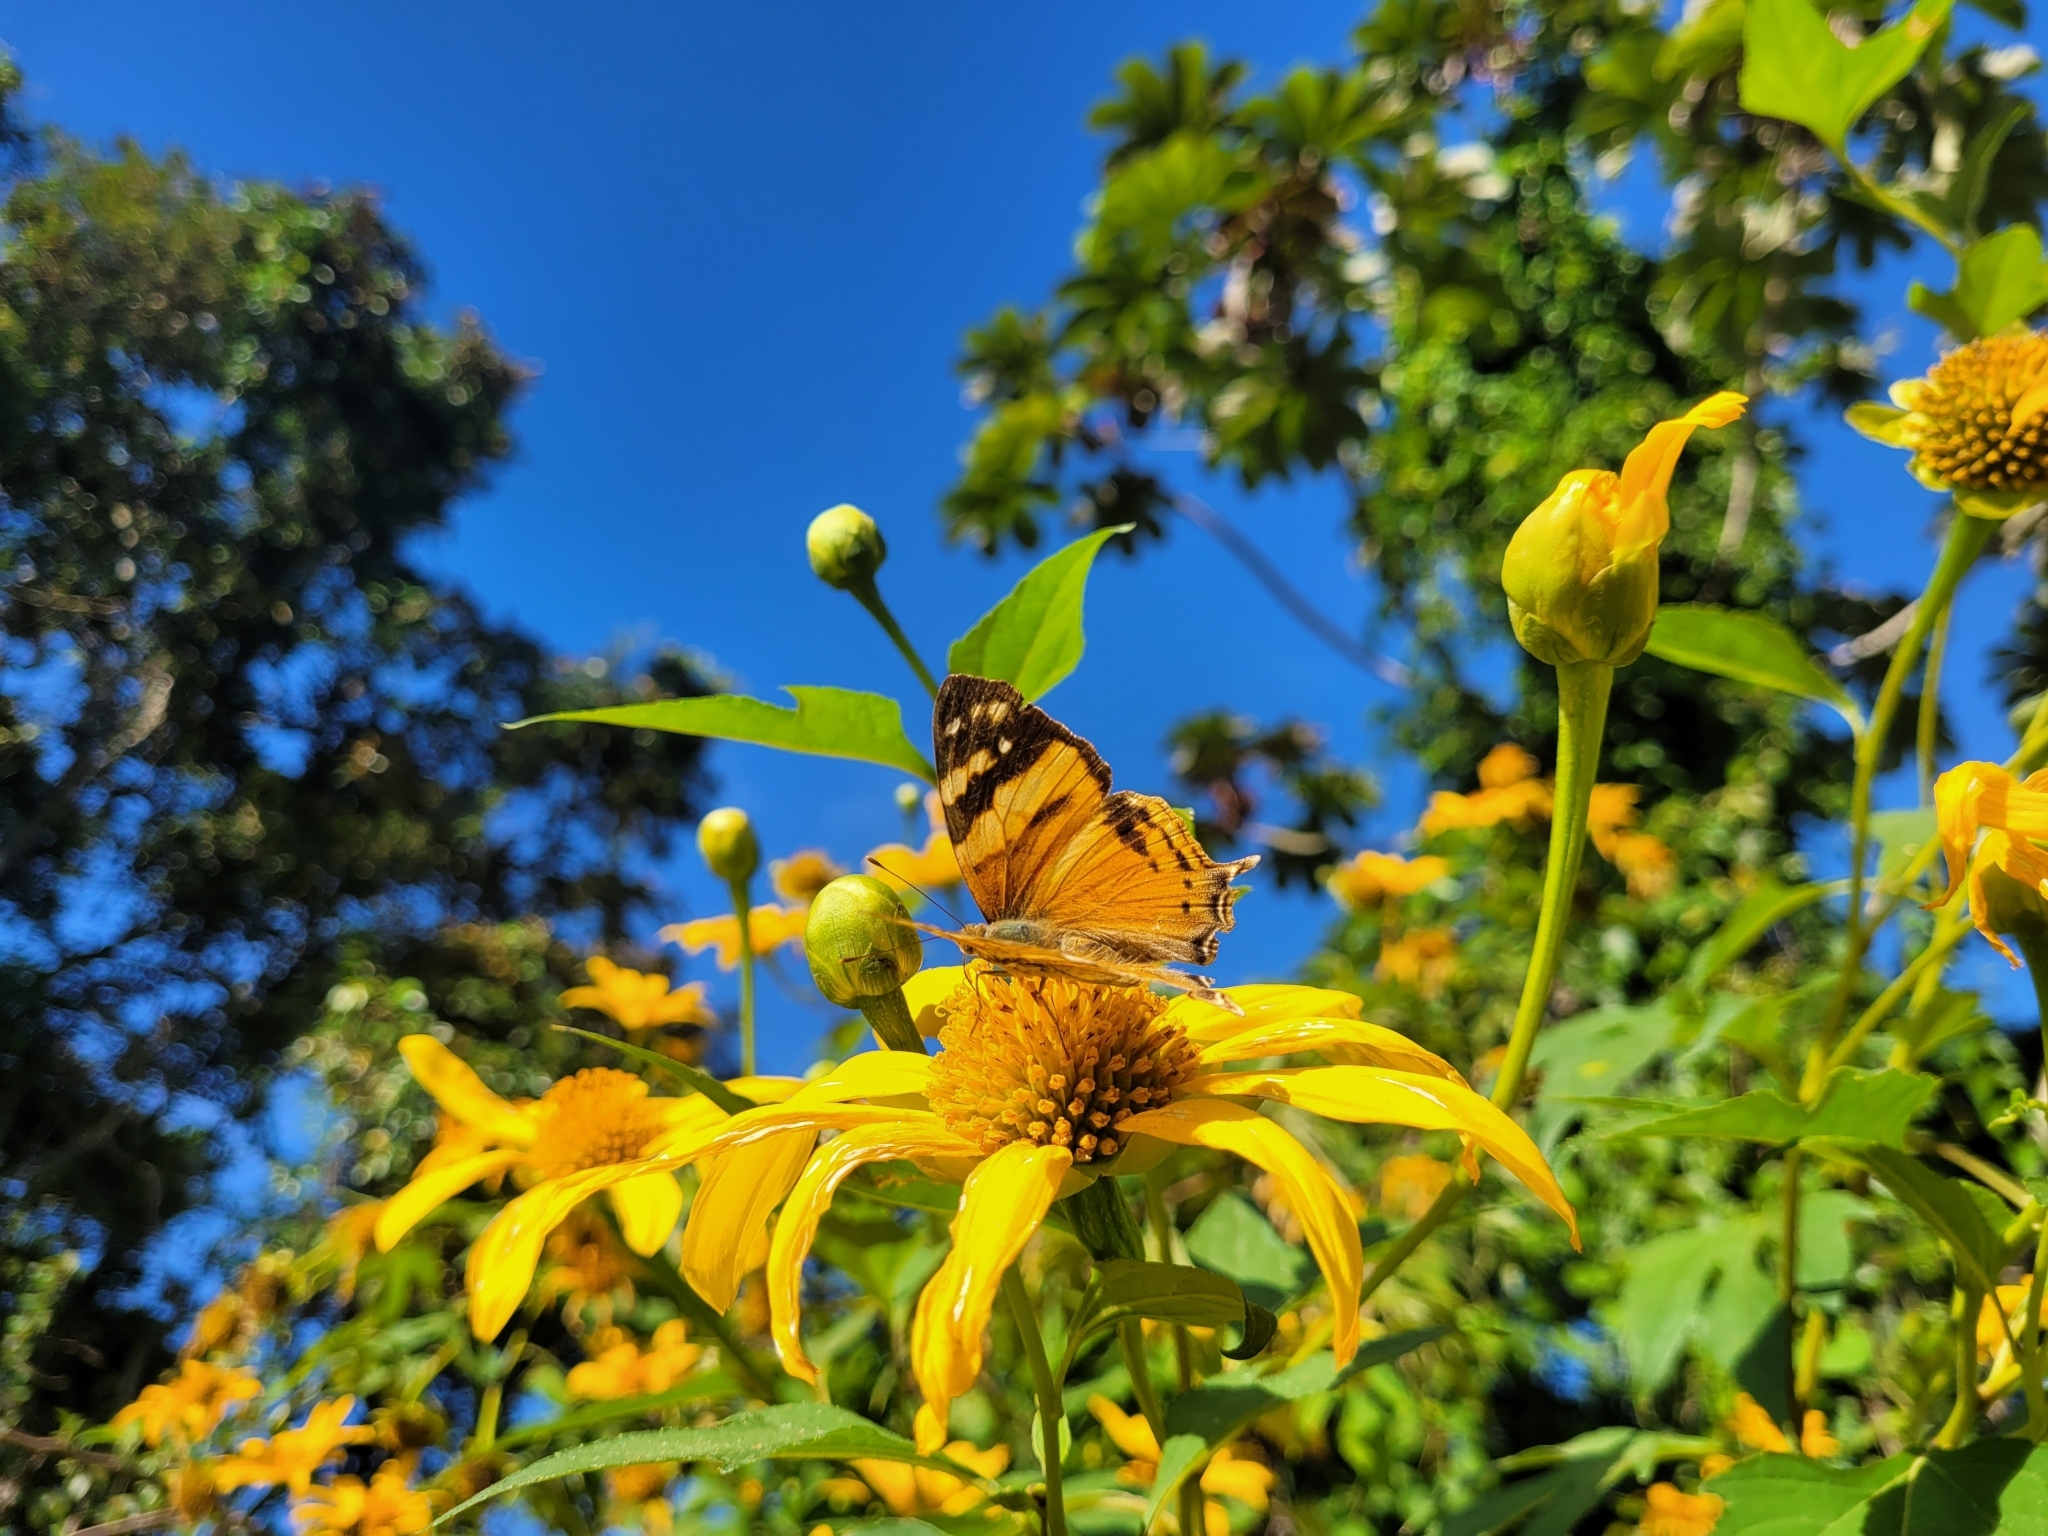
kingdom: Animalia
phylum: Arthropoda
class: Insecta
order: Lepidoptera
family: Nymphalidae
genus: Hypanartia
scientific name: Hypanartia lethe
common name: Orange mapwing
